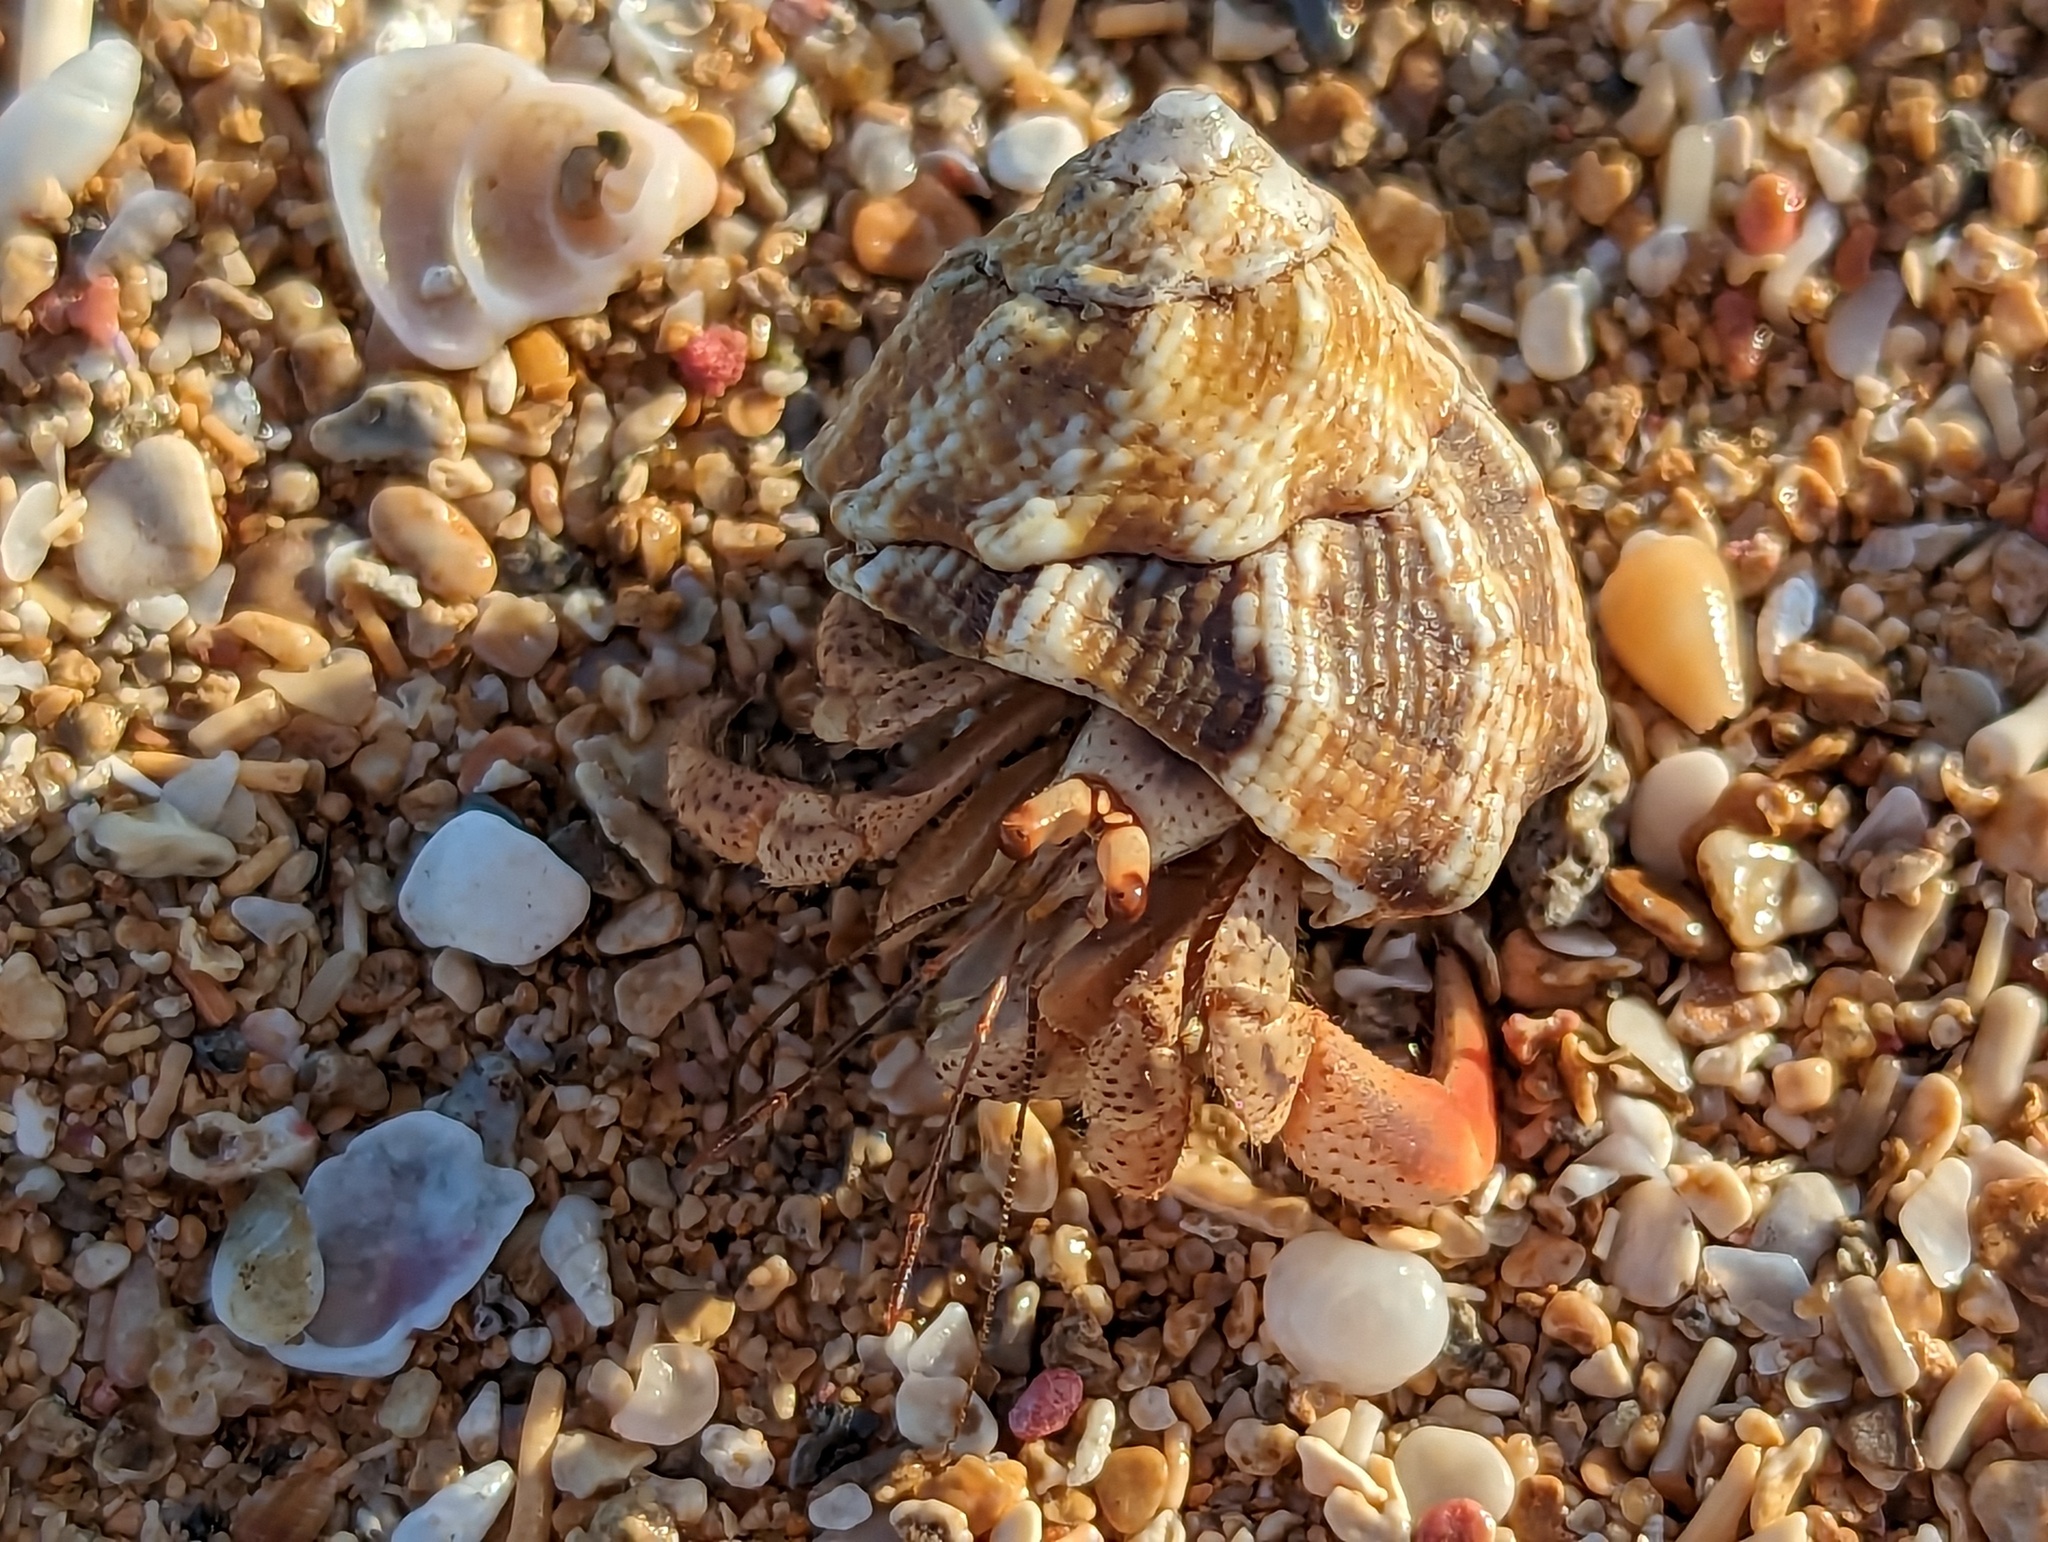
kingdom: Animalia
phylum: Arthropoda
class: Malacostraca
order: Decapoda
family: Coenobitidae
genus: Coenobita
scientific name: Coenobita clypeatus
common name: Caribbean hermit crab
